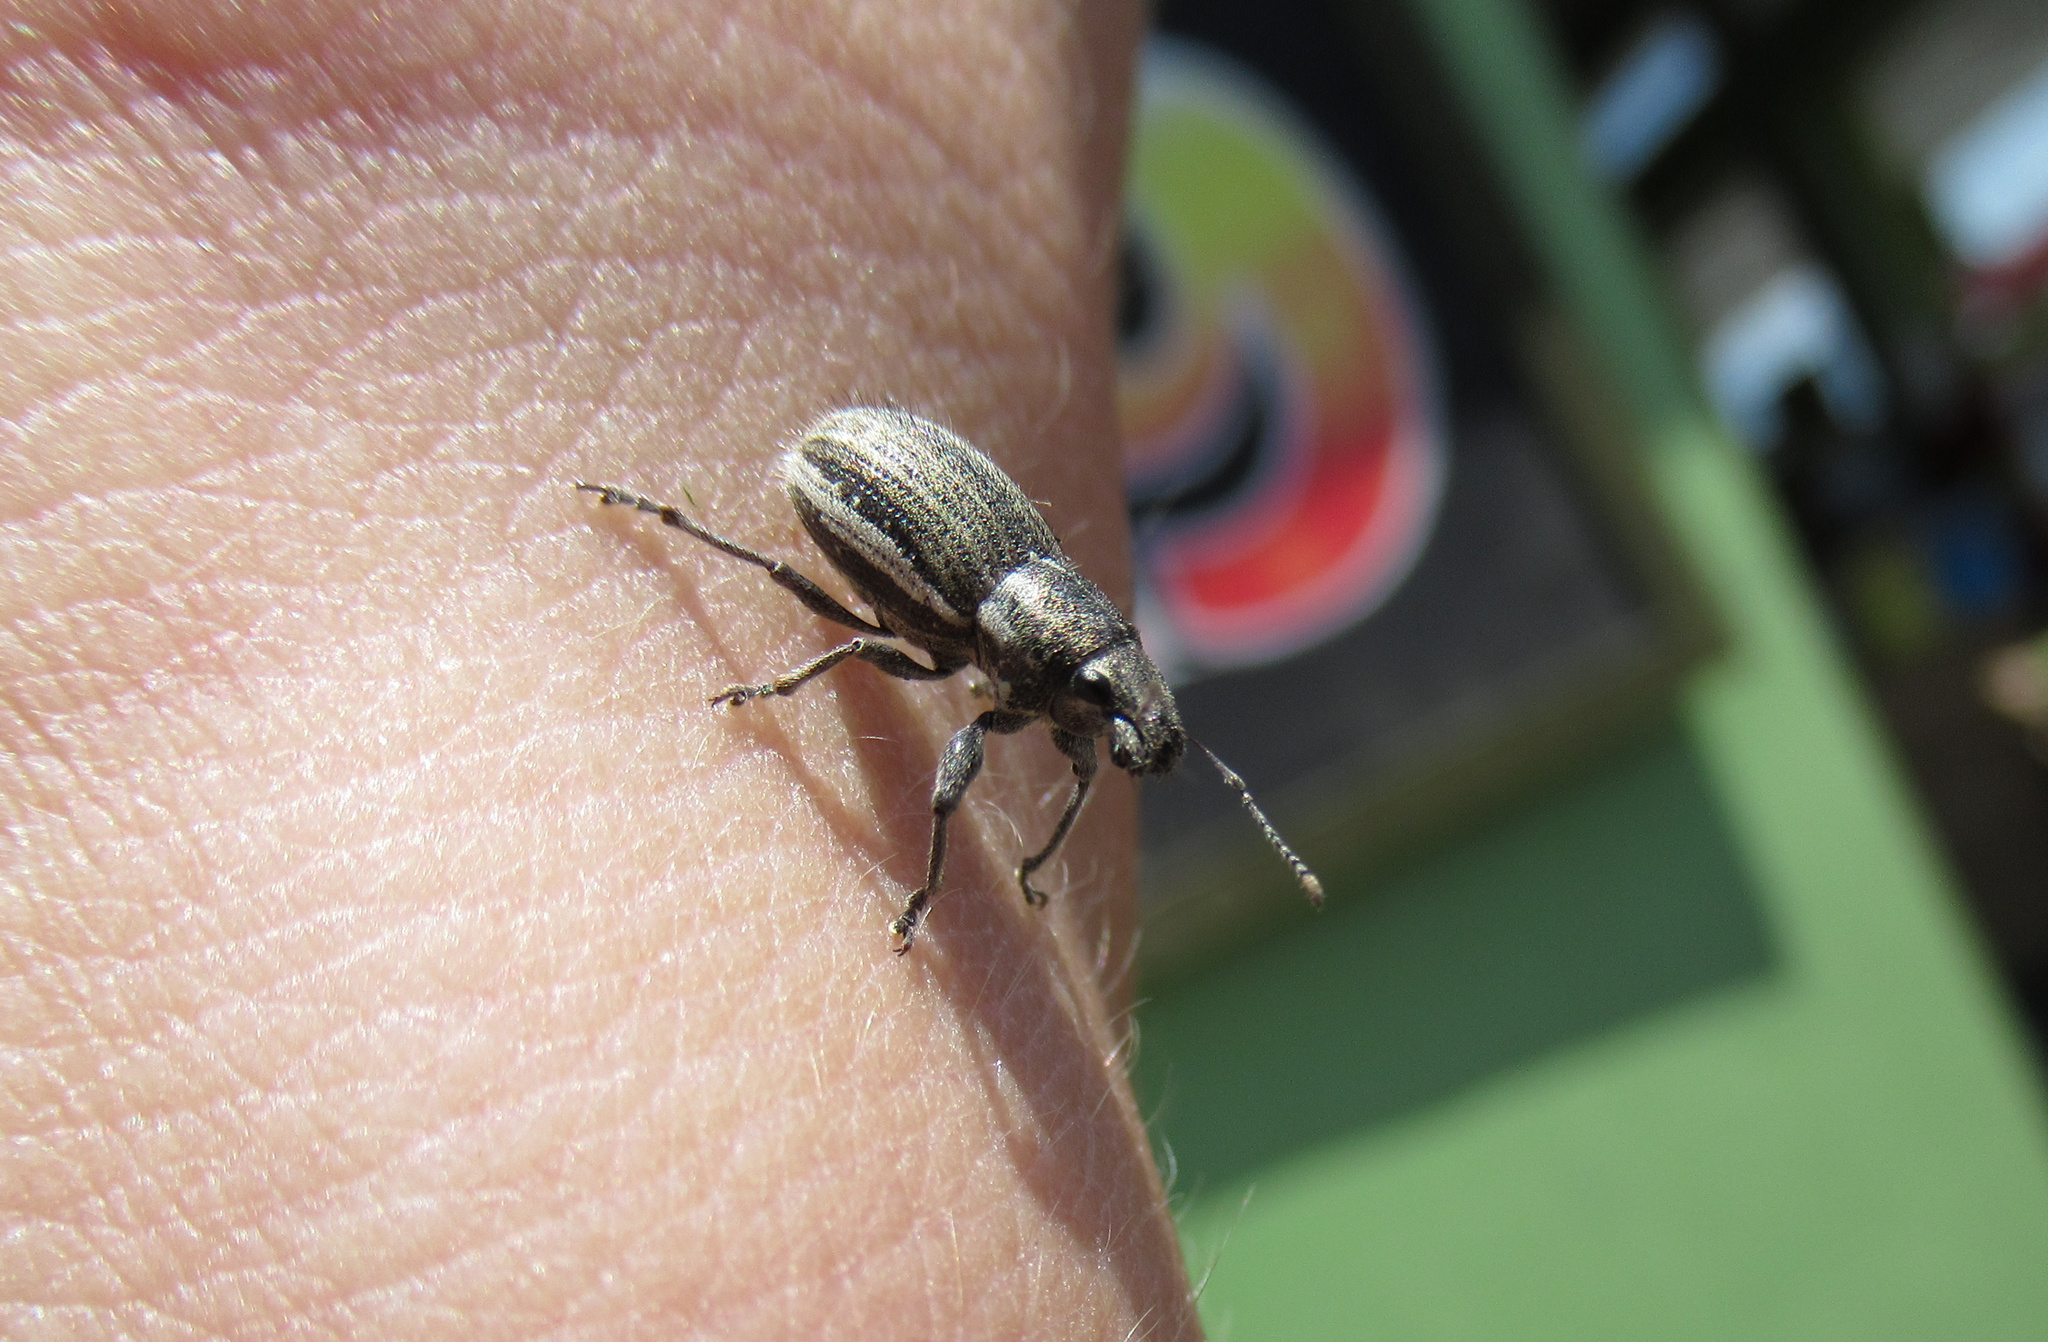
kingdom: Animalia
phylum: Arthropoda
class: Insecta
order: Coleoptera
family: Curculionidae
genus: Naupactus
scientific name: Naupactus leucoloma
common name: Whitefringed beetle
